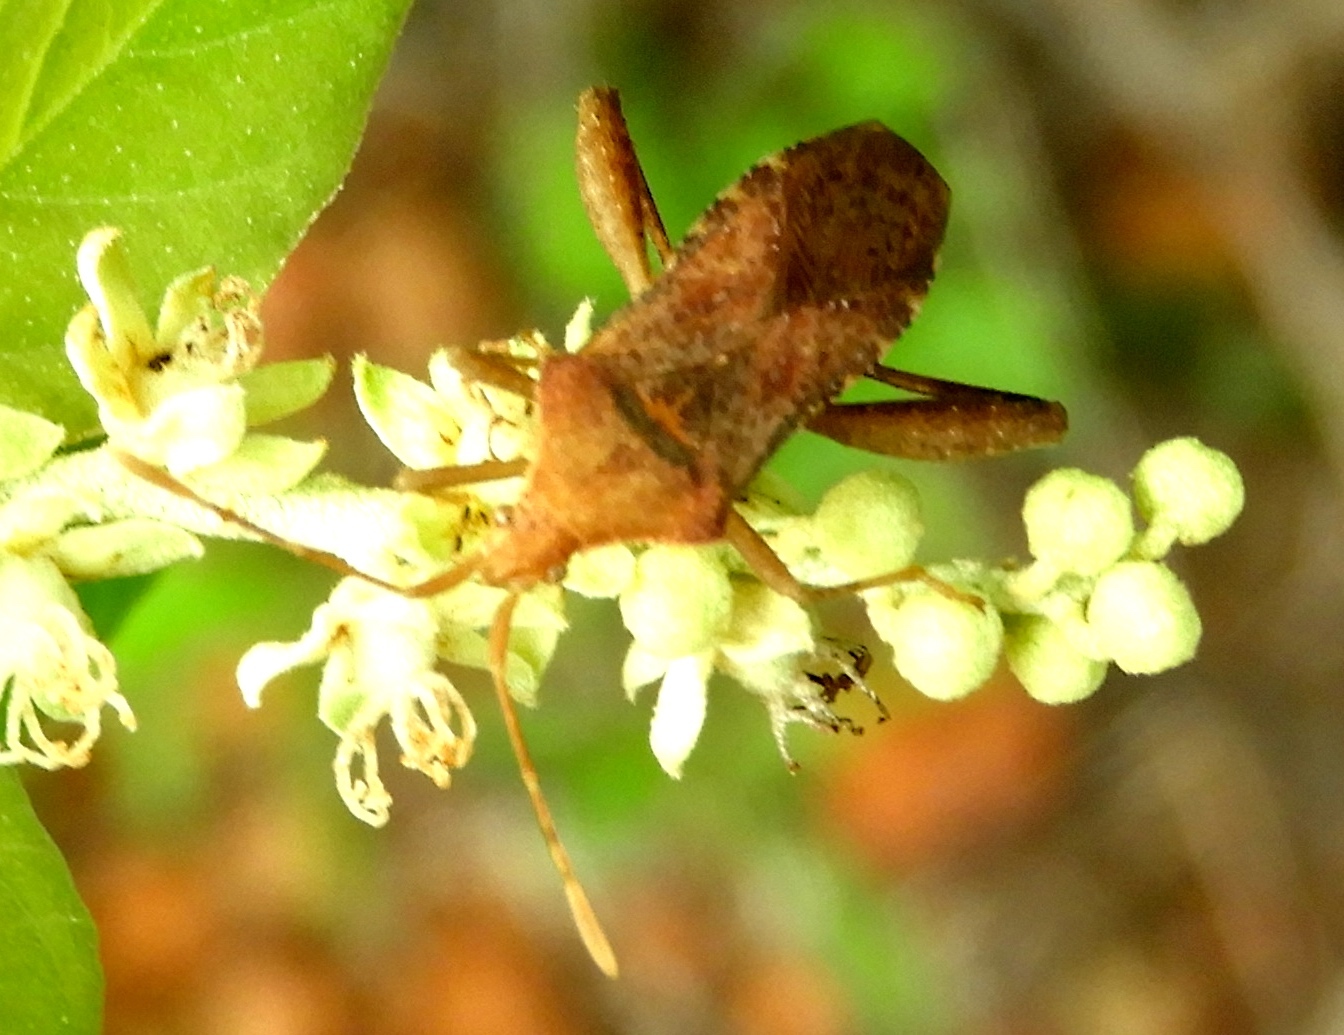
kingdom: Animalia
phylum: Arthropoda
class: Insecta
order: Hemiptera
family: Coreidae
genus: Mamurius
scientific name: Mamurius mopsus
